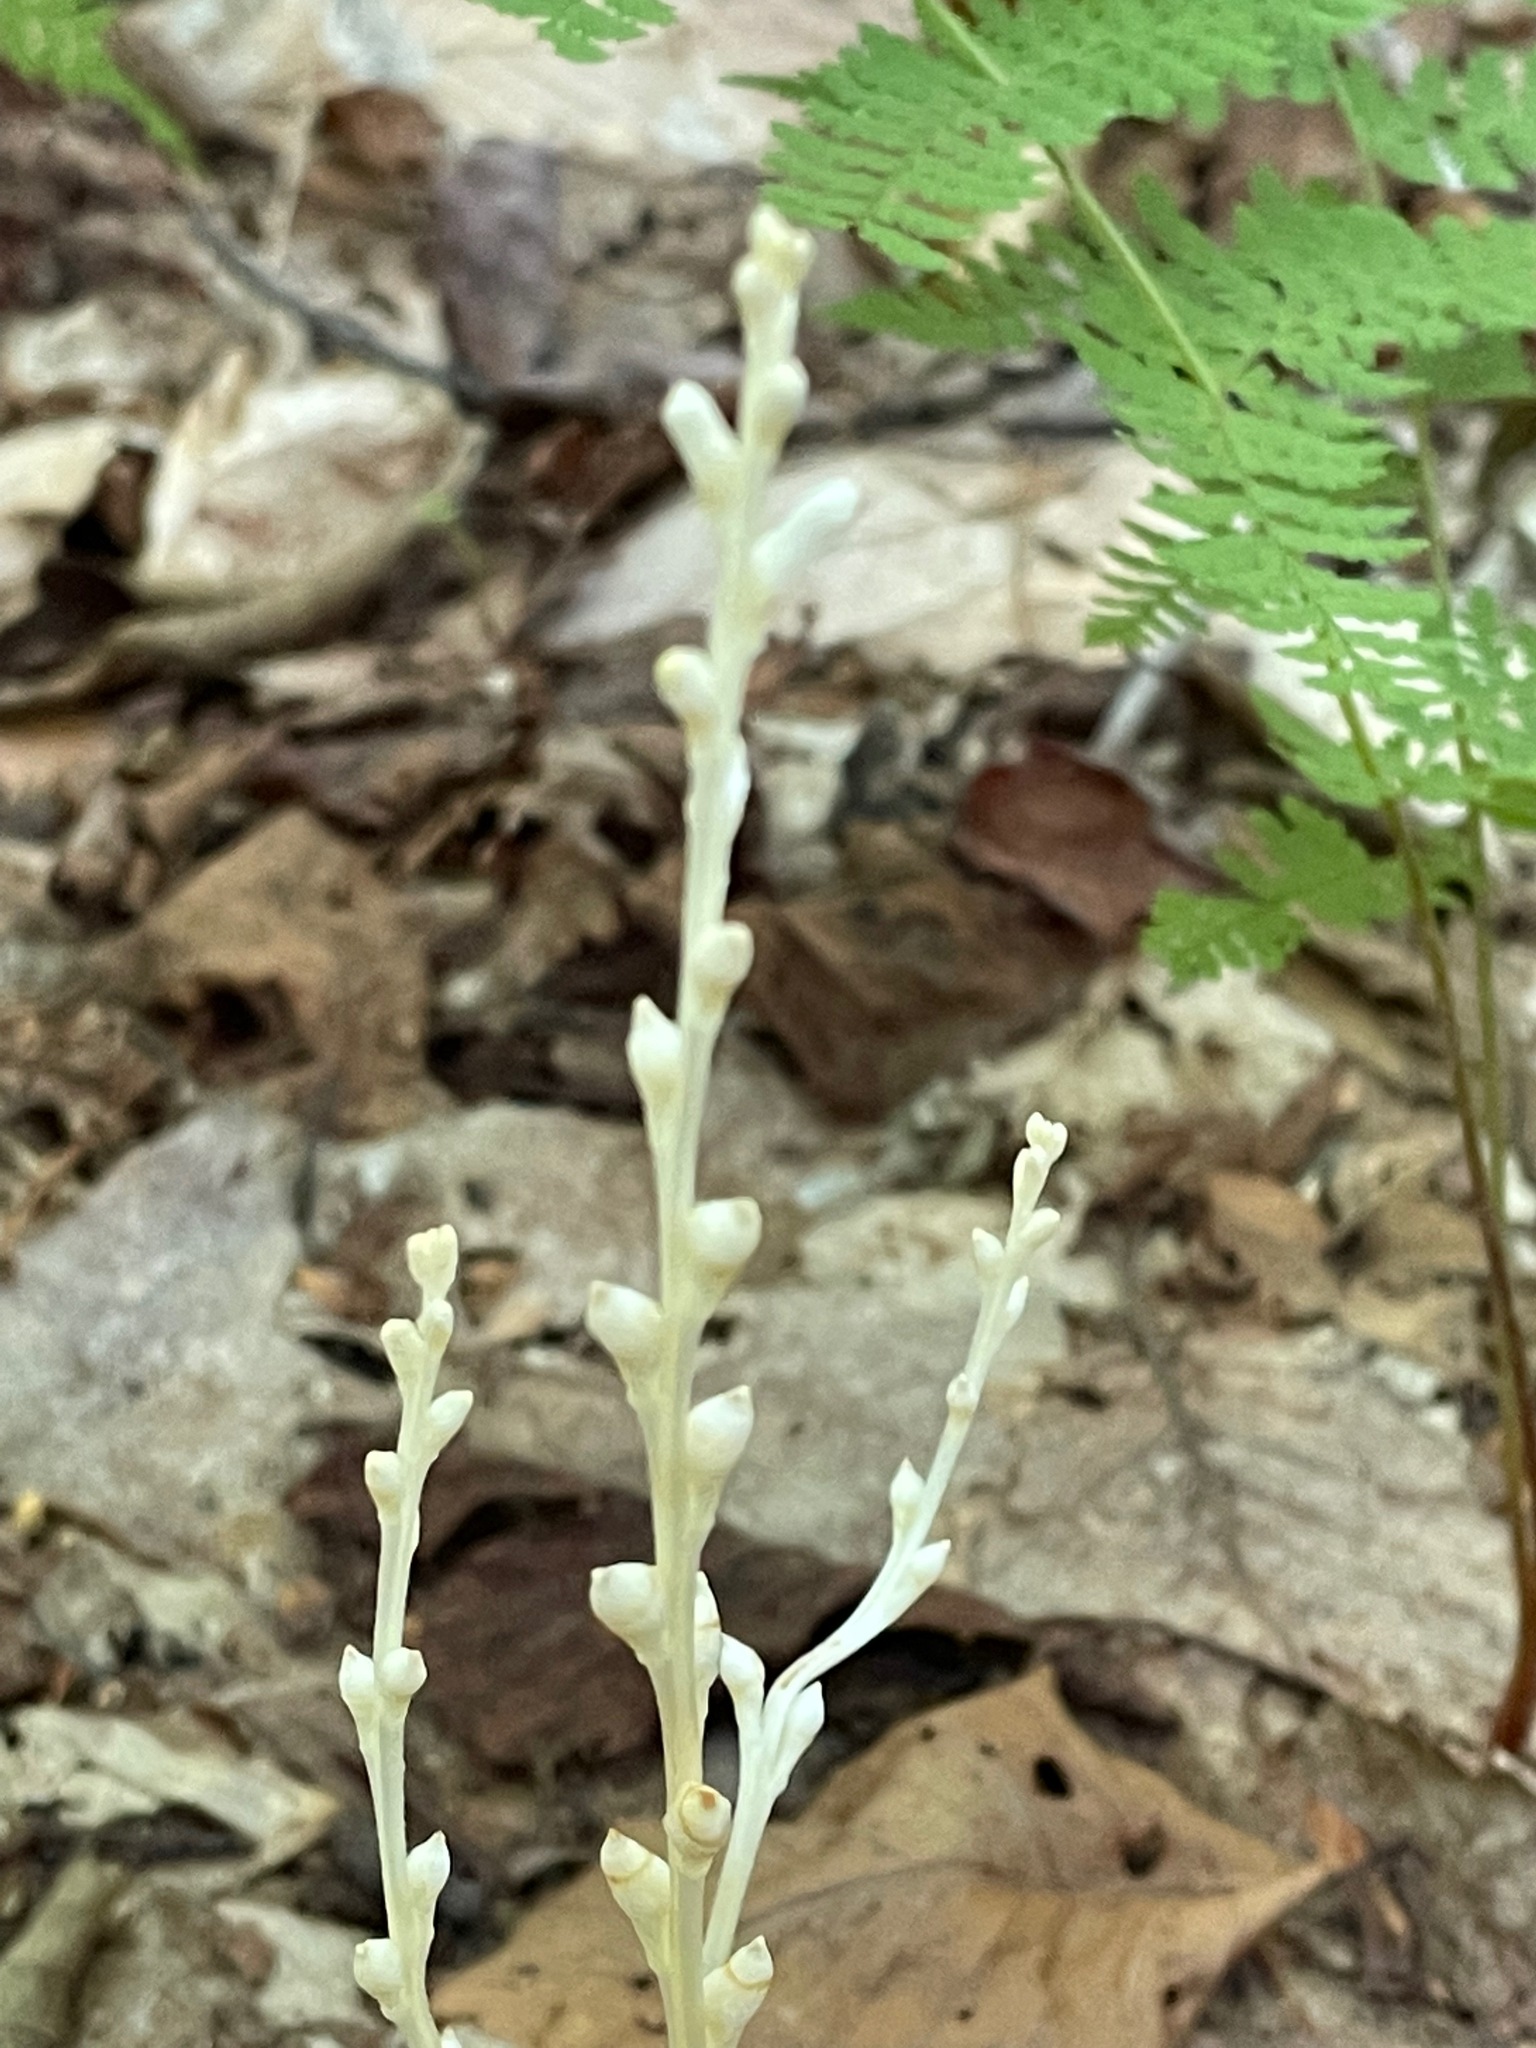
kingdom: Plantae
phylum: Tracheophyta
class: Magnoliopsida
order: Lamiales
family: Orobanchaceae
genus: Epifagus
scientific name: Epifagus virginiana
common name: Beechdrops
